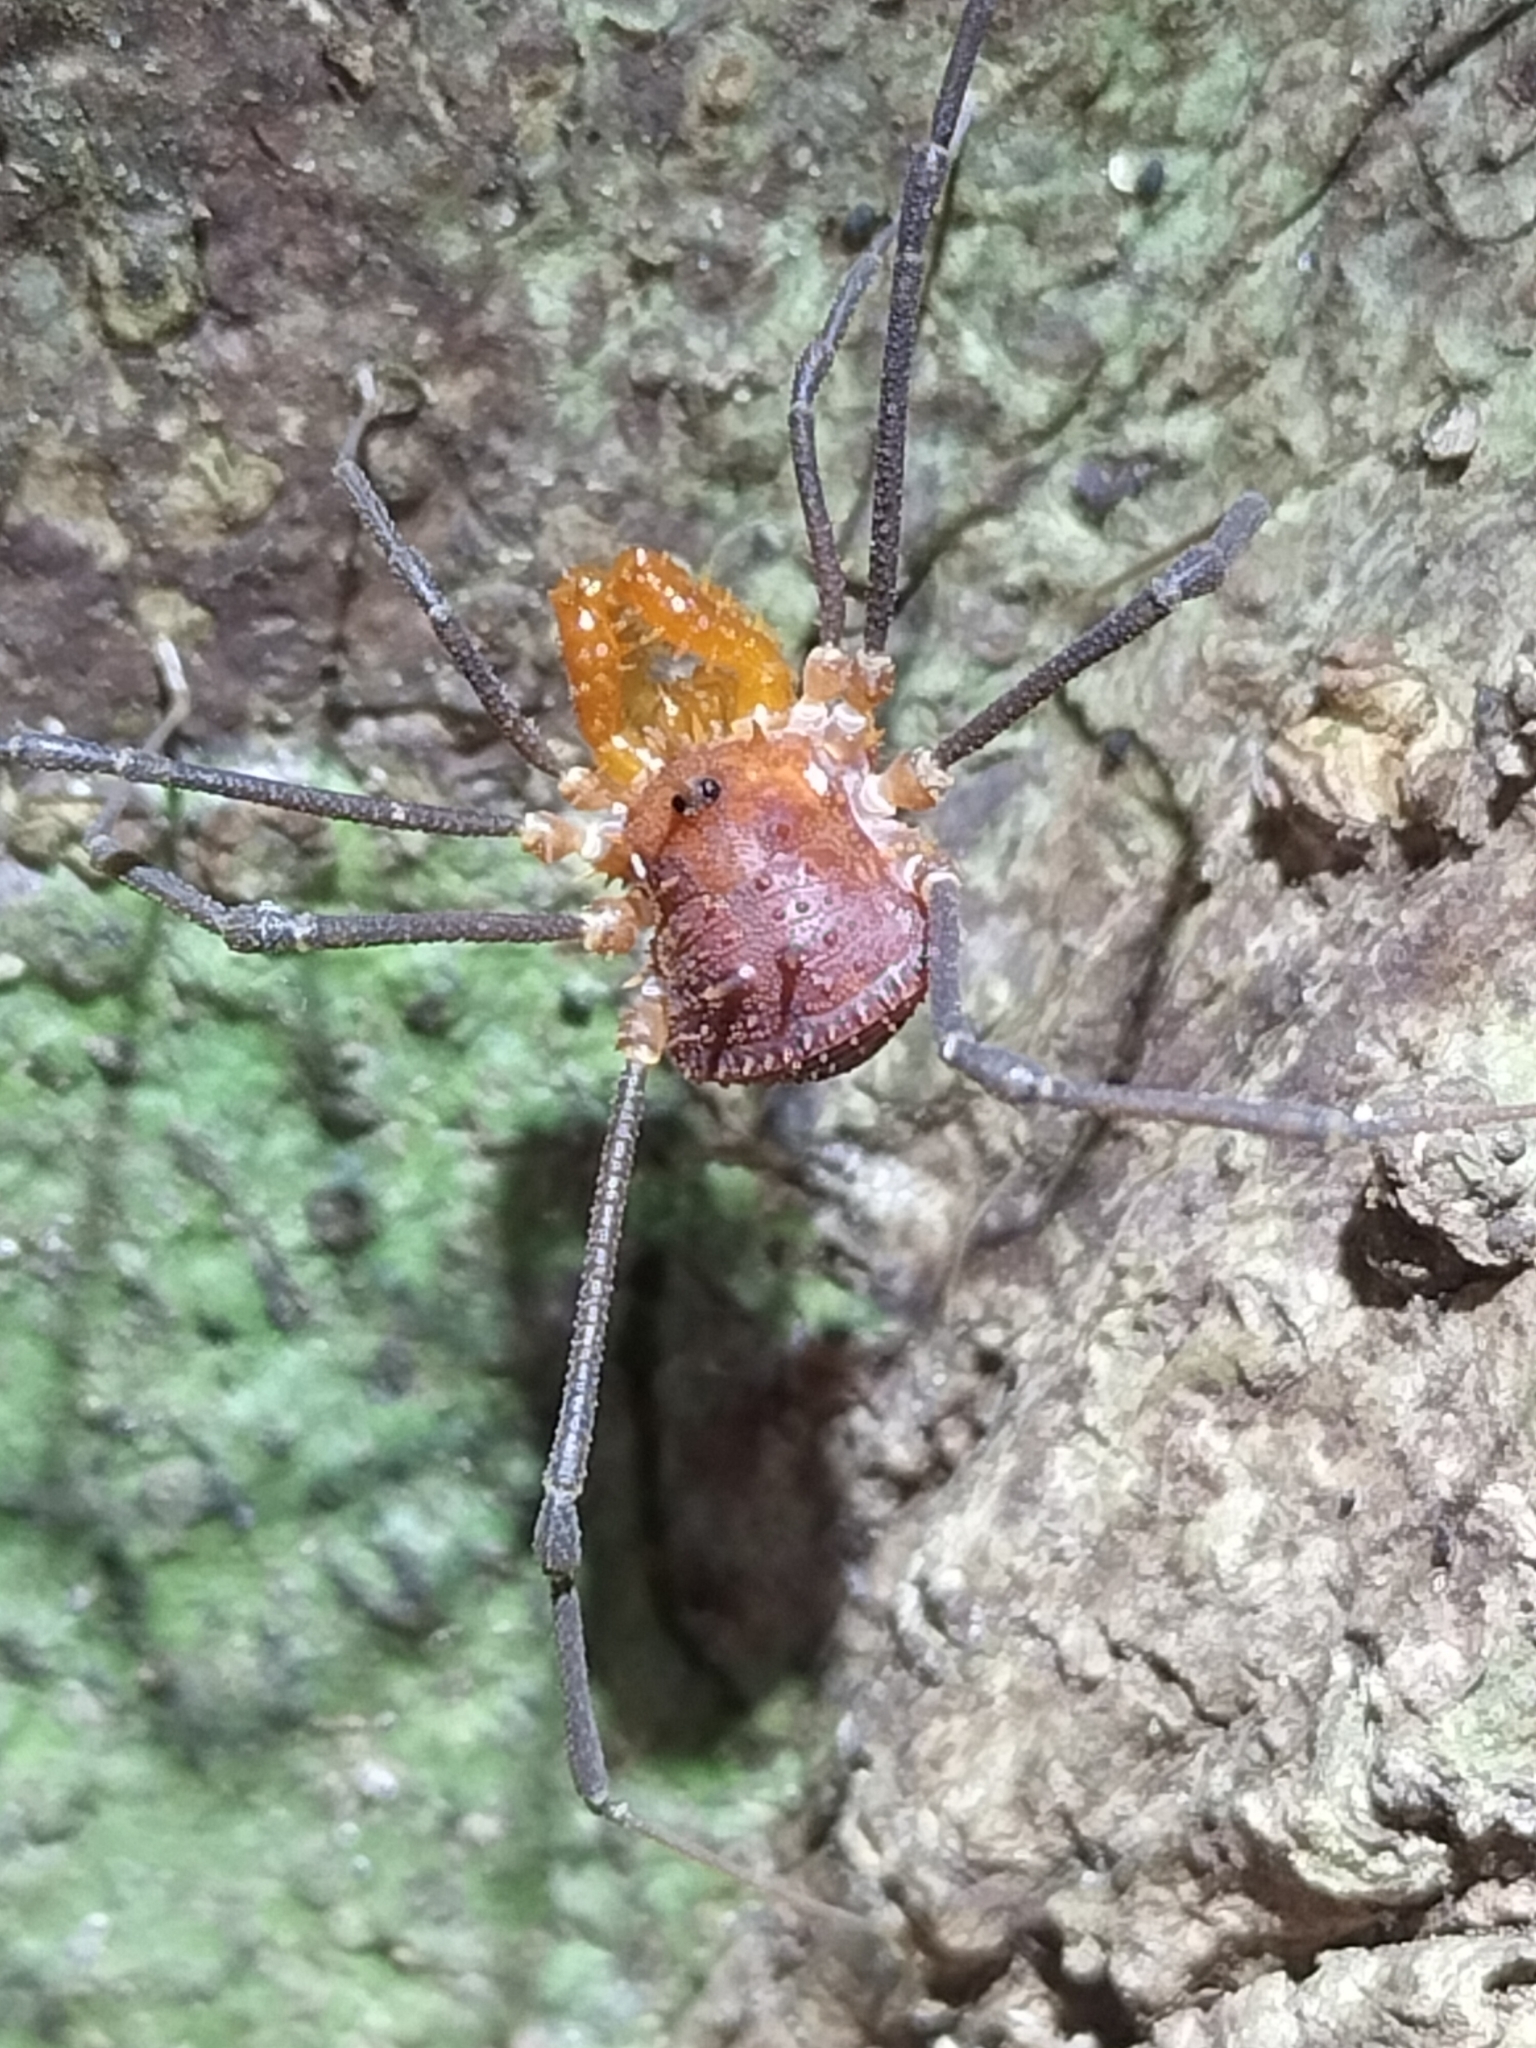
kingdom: Animalia
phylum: Arthropoda
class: Arachnida
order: Opiliones
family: Triaenonychidae
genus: Heteronuncia
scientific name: Heteronuncia robusta
